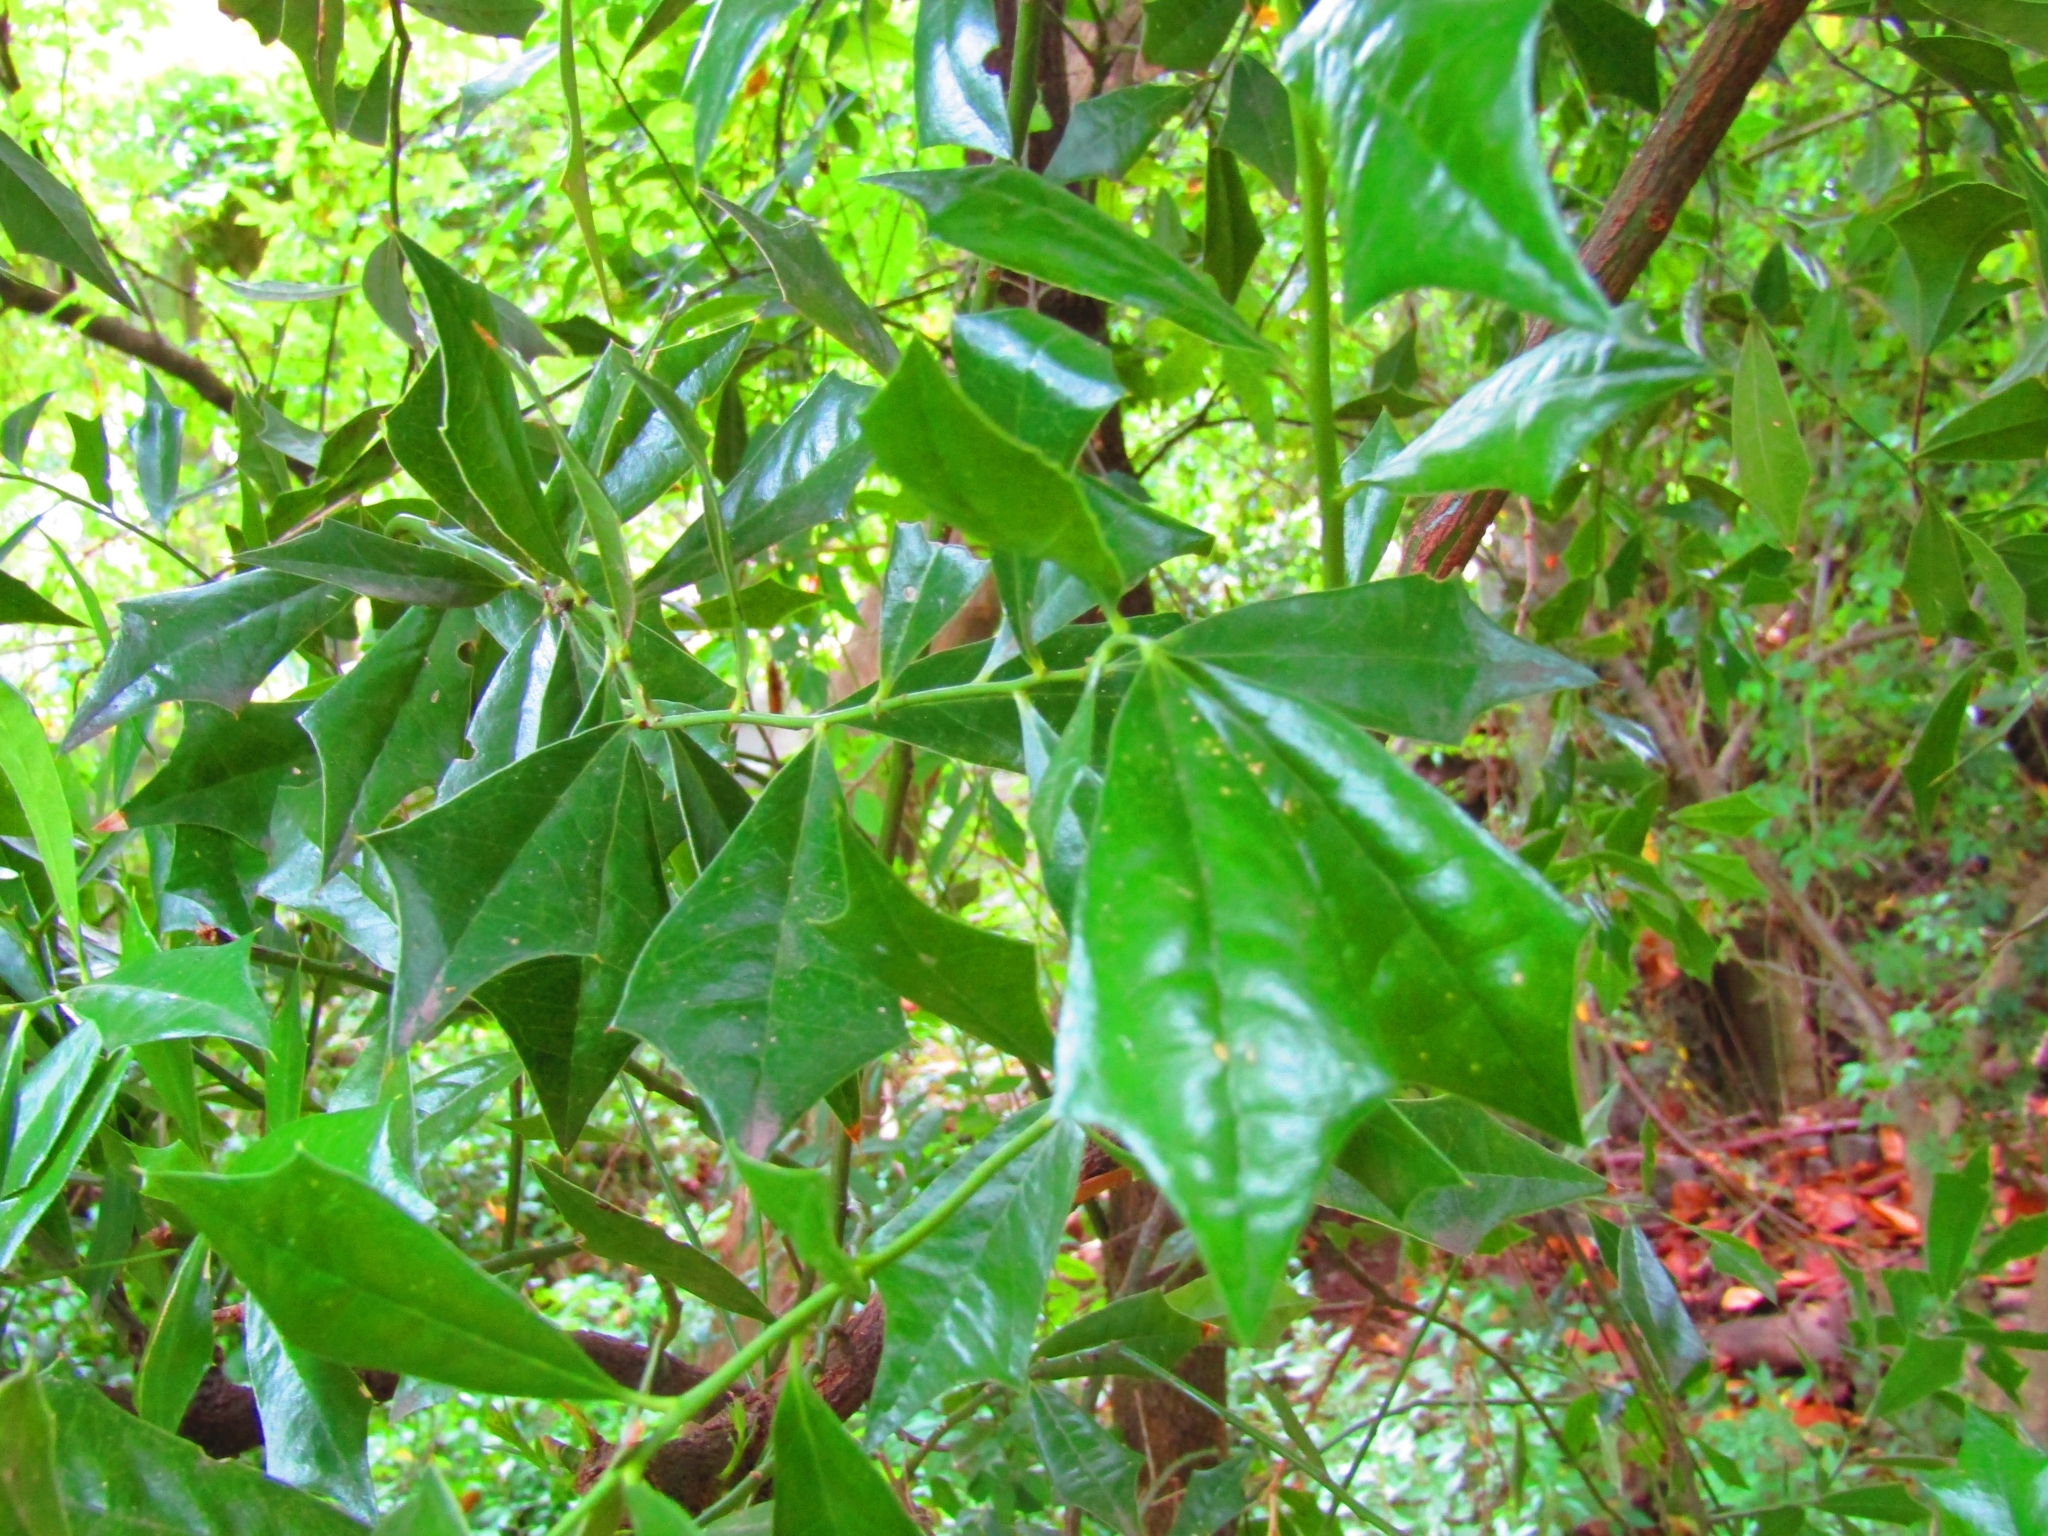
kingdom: Plantae
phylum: Tracheophyta
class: Magnoliopsida
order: Santalales
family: Cervantesiaceae
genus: Jodina
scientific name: Jodina rhombifolia
